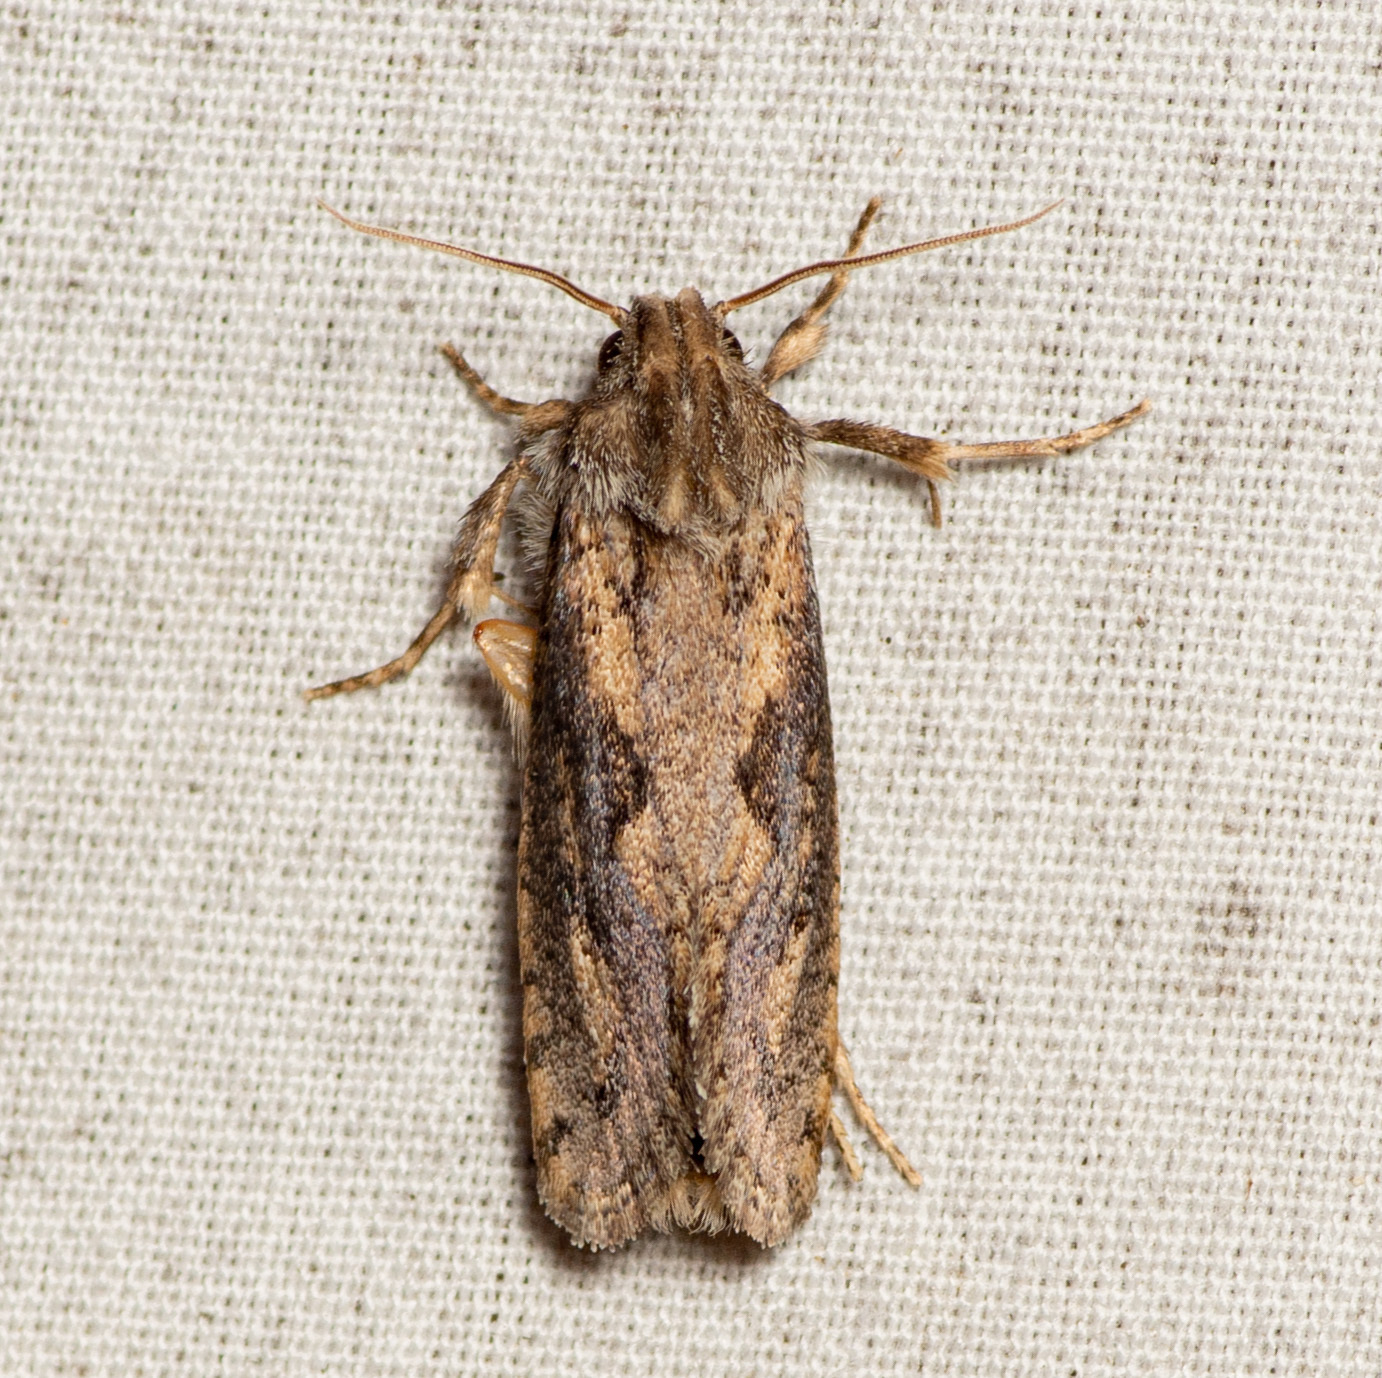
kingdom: Animalia
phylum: Arthropoda
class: Insecta
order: Lepidoptera
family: Tineidae
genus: Acrolophus
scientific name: Acrolophus popeanella
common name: Clemens' grass tubeworm moth
